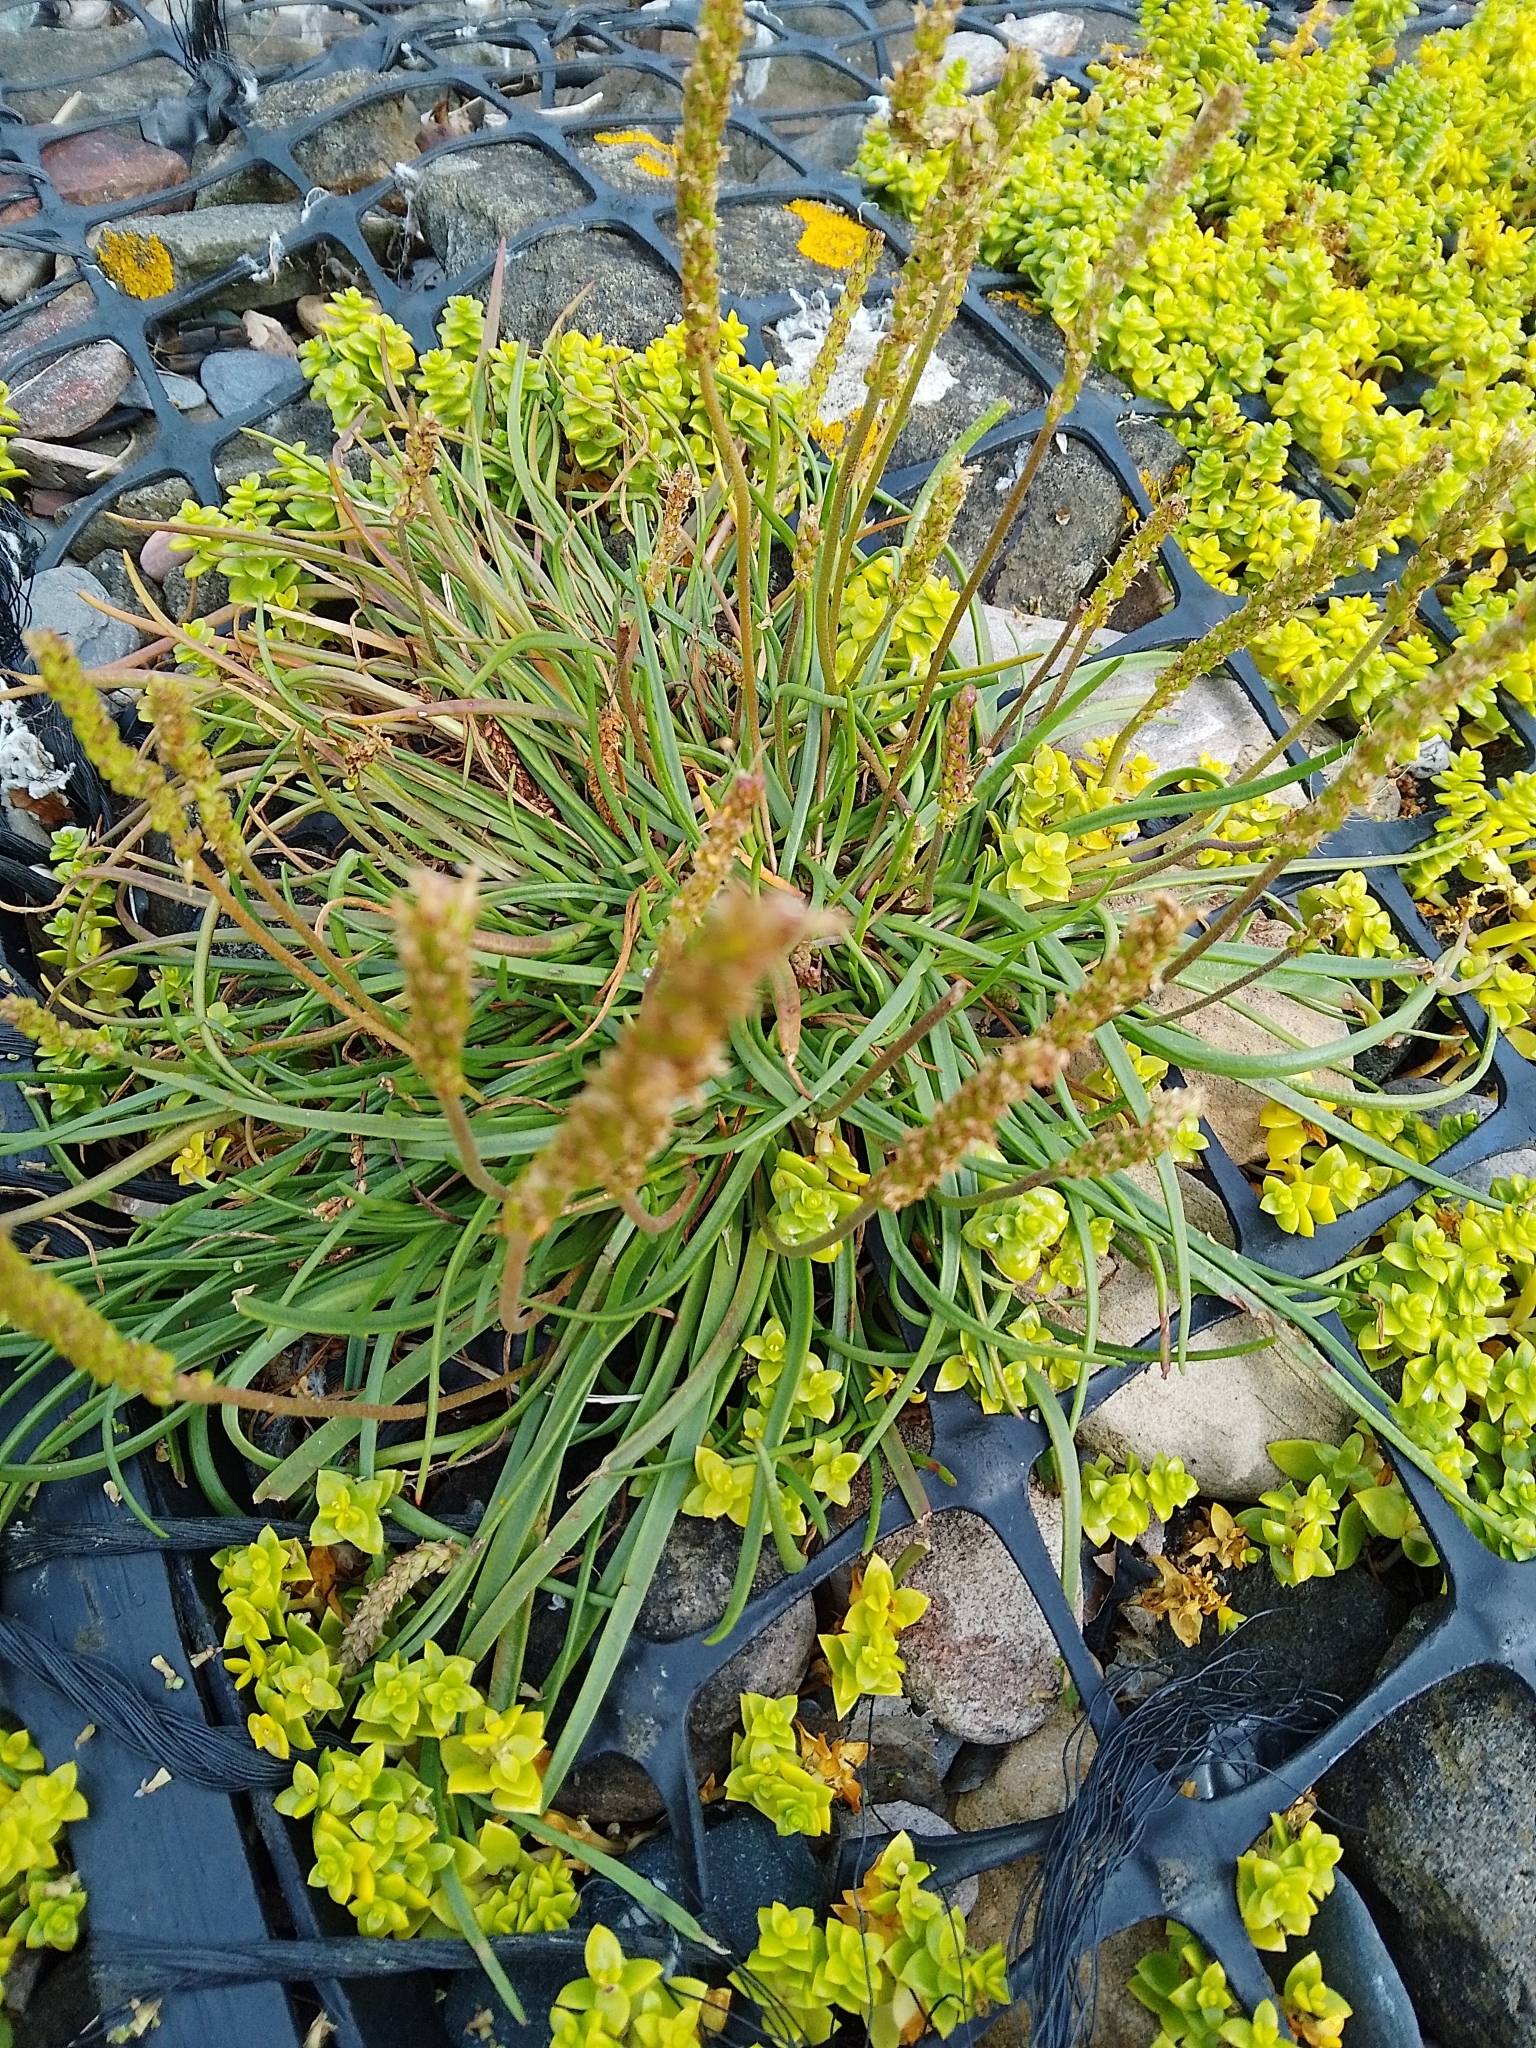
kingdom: Plantae
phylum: Tracheophyta
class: Magnoliopsida
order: Lamiales
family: Plantaginaceae
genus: Plantago
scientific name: Plantago maritima
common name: Sea plantain
